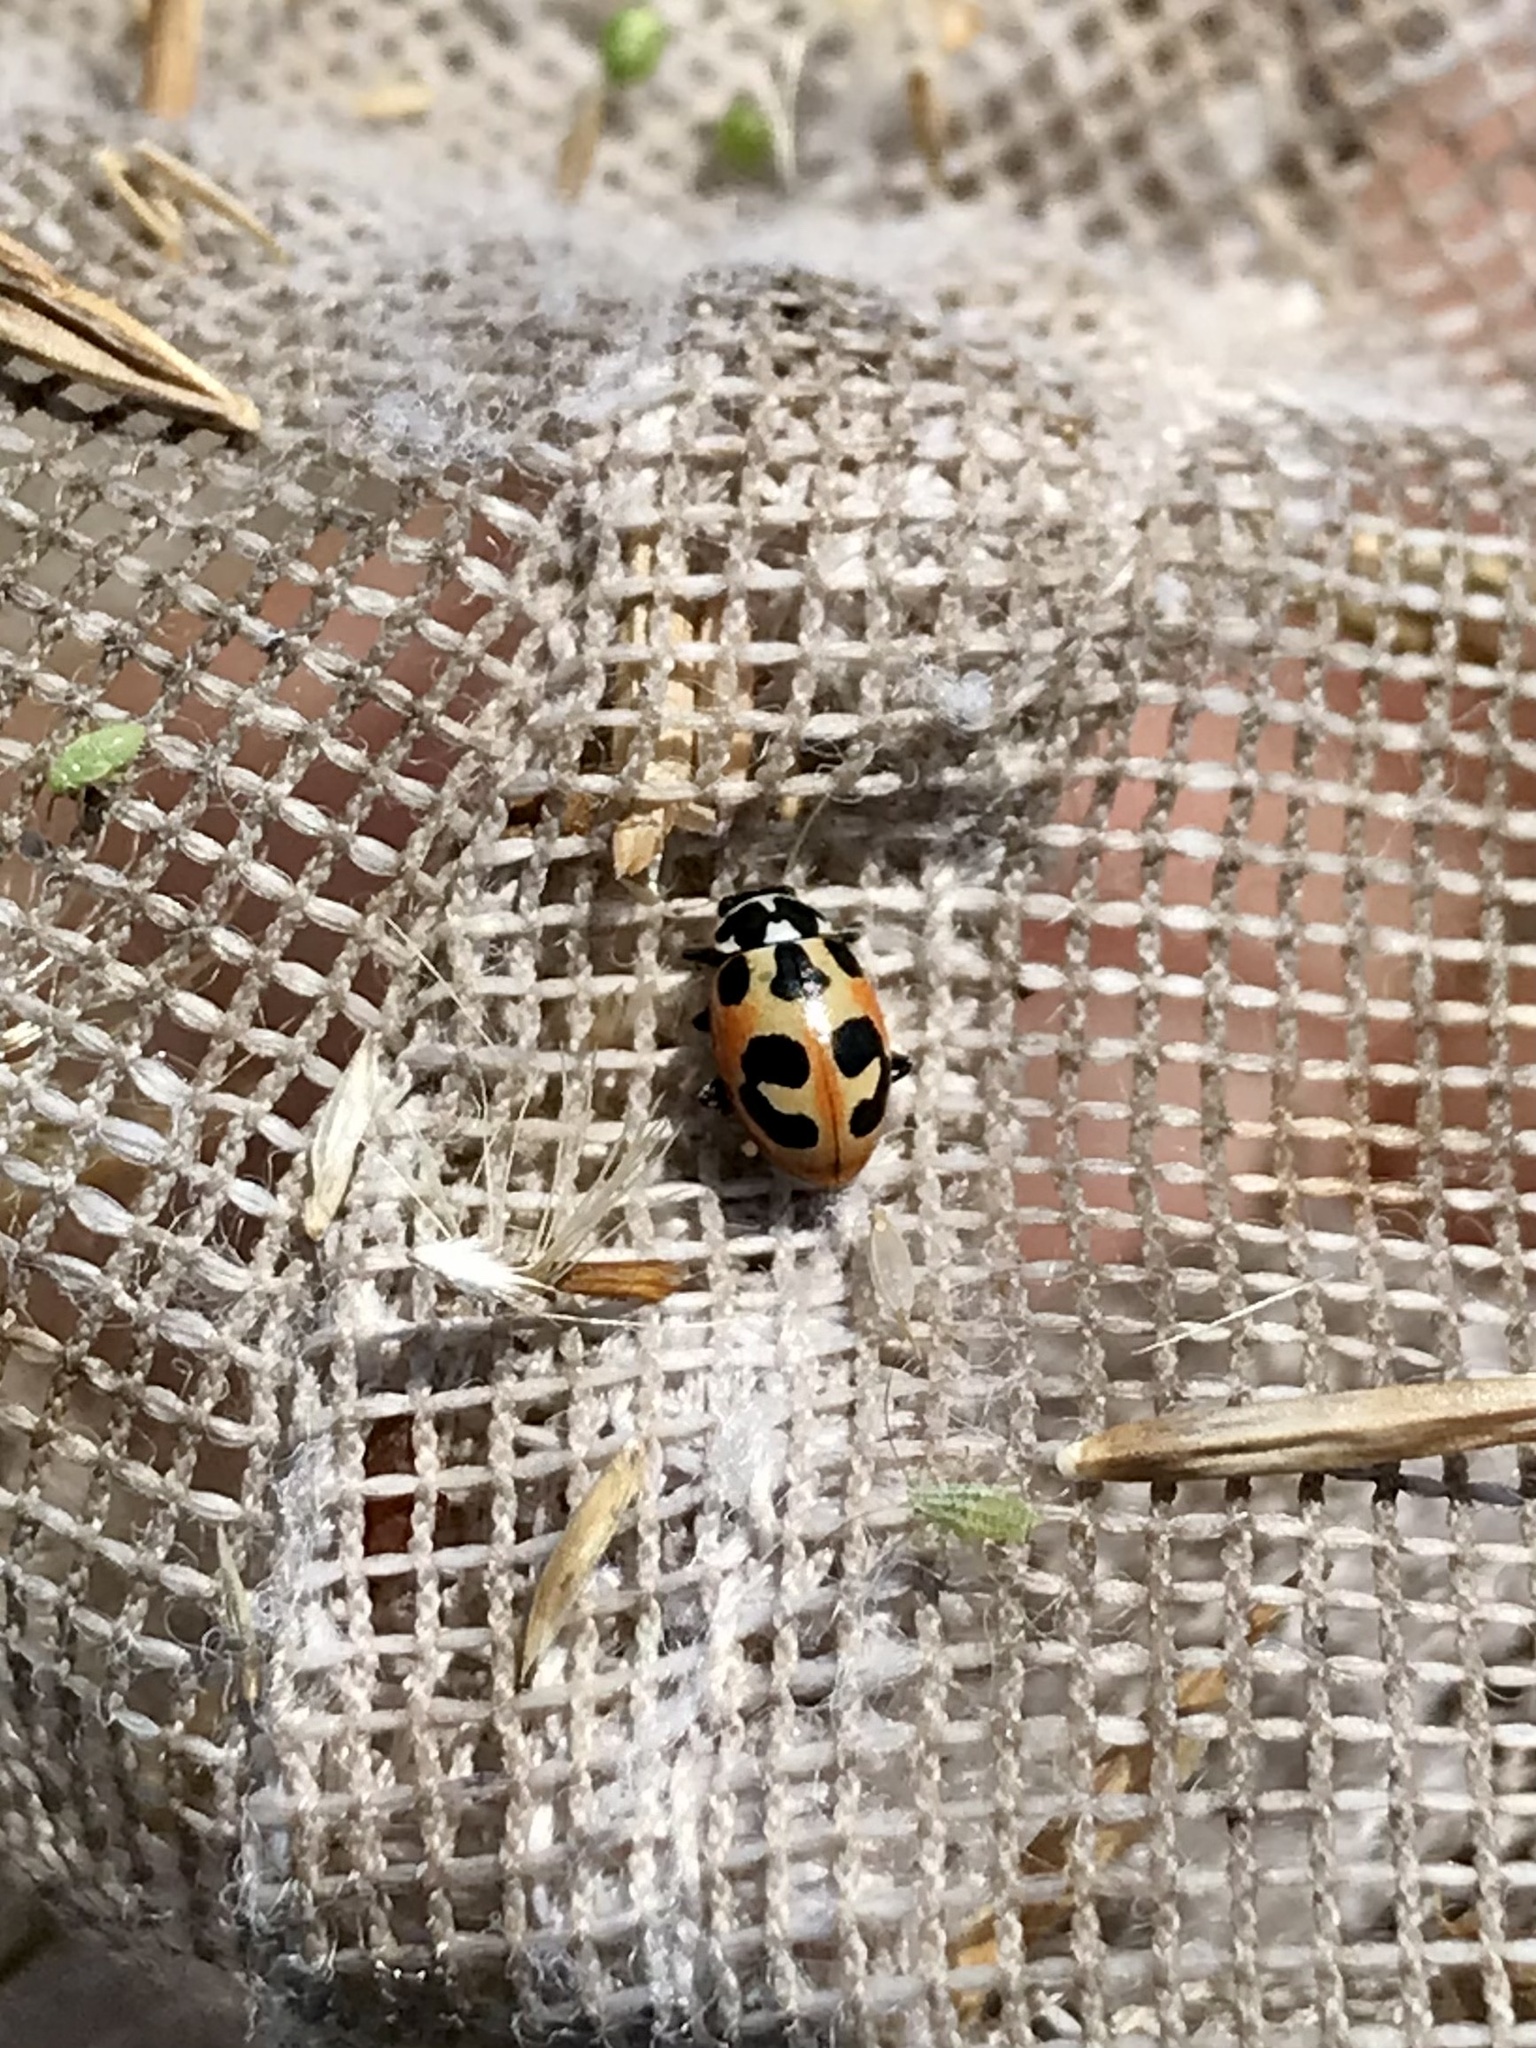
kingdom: Animalia
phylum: Arthropoda
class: Insecta
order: Coleoptera
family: Coccinellidae
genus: Hippodamia
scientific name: Hippodamia parenthesis
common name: Parenthesis lady beetle
